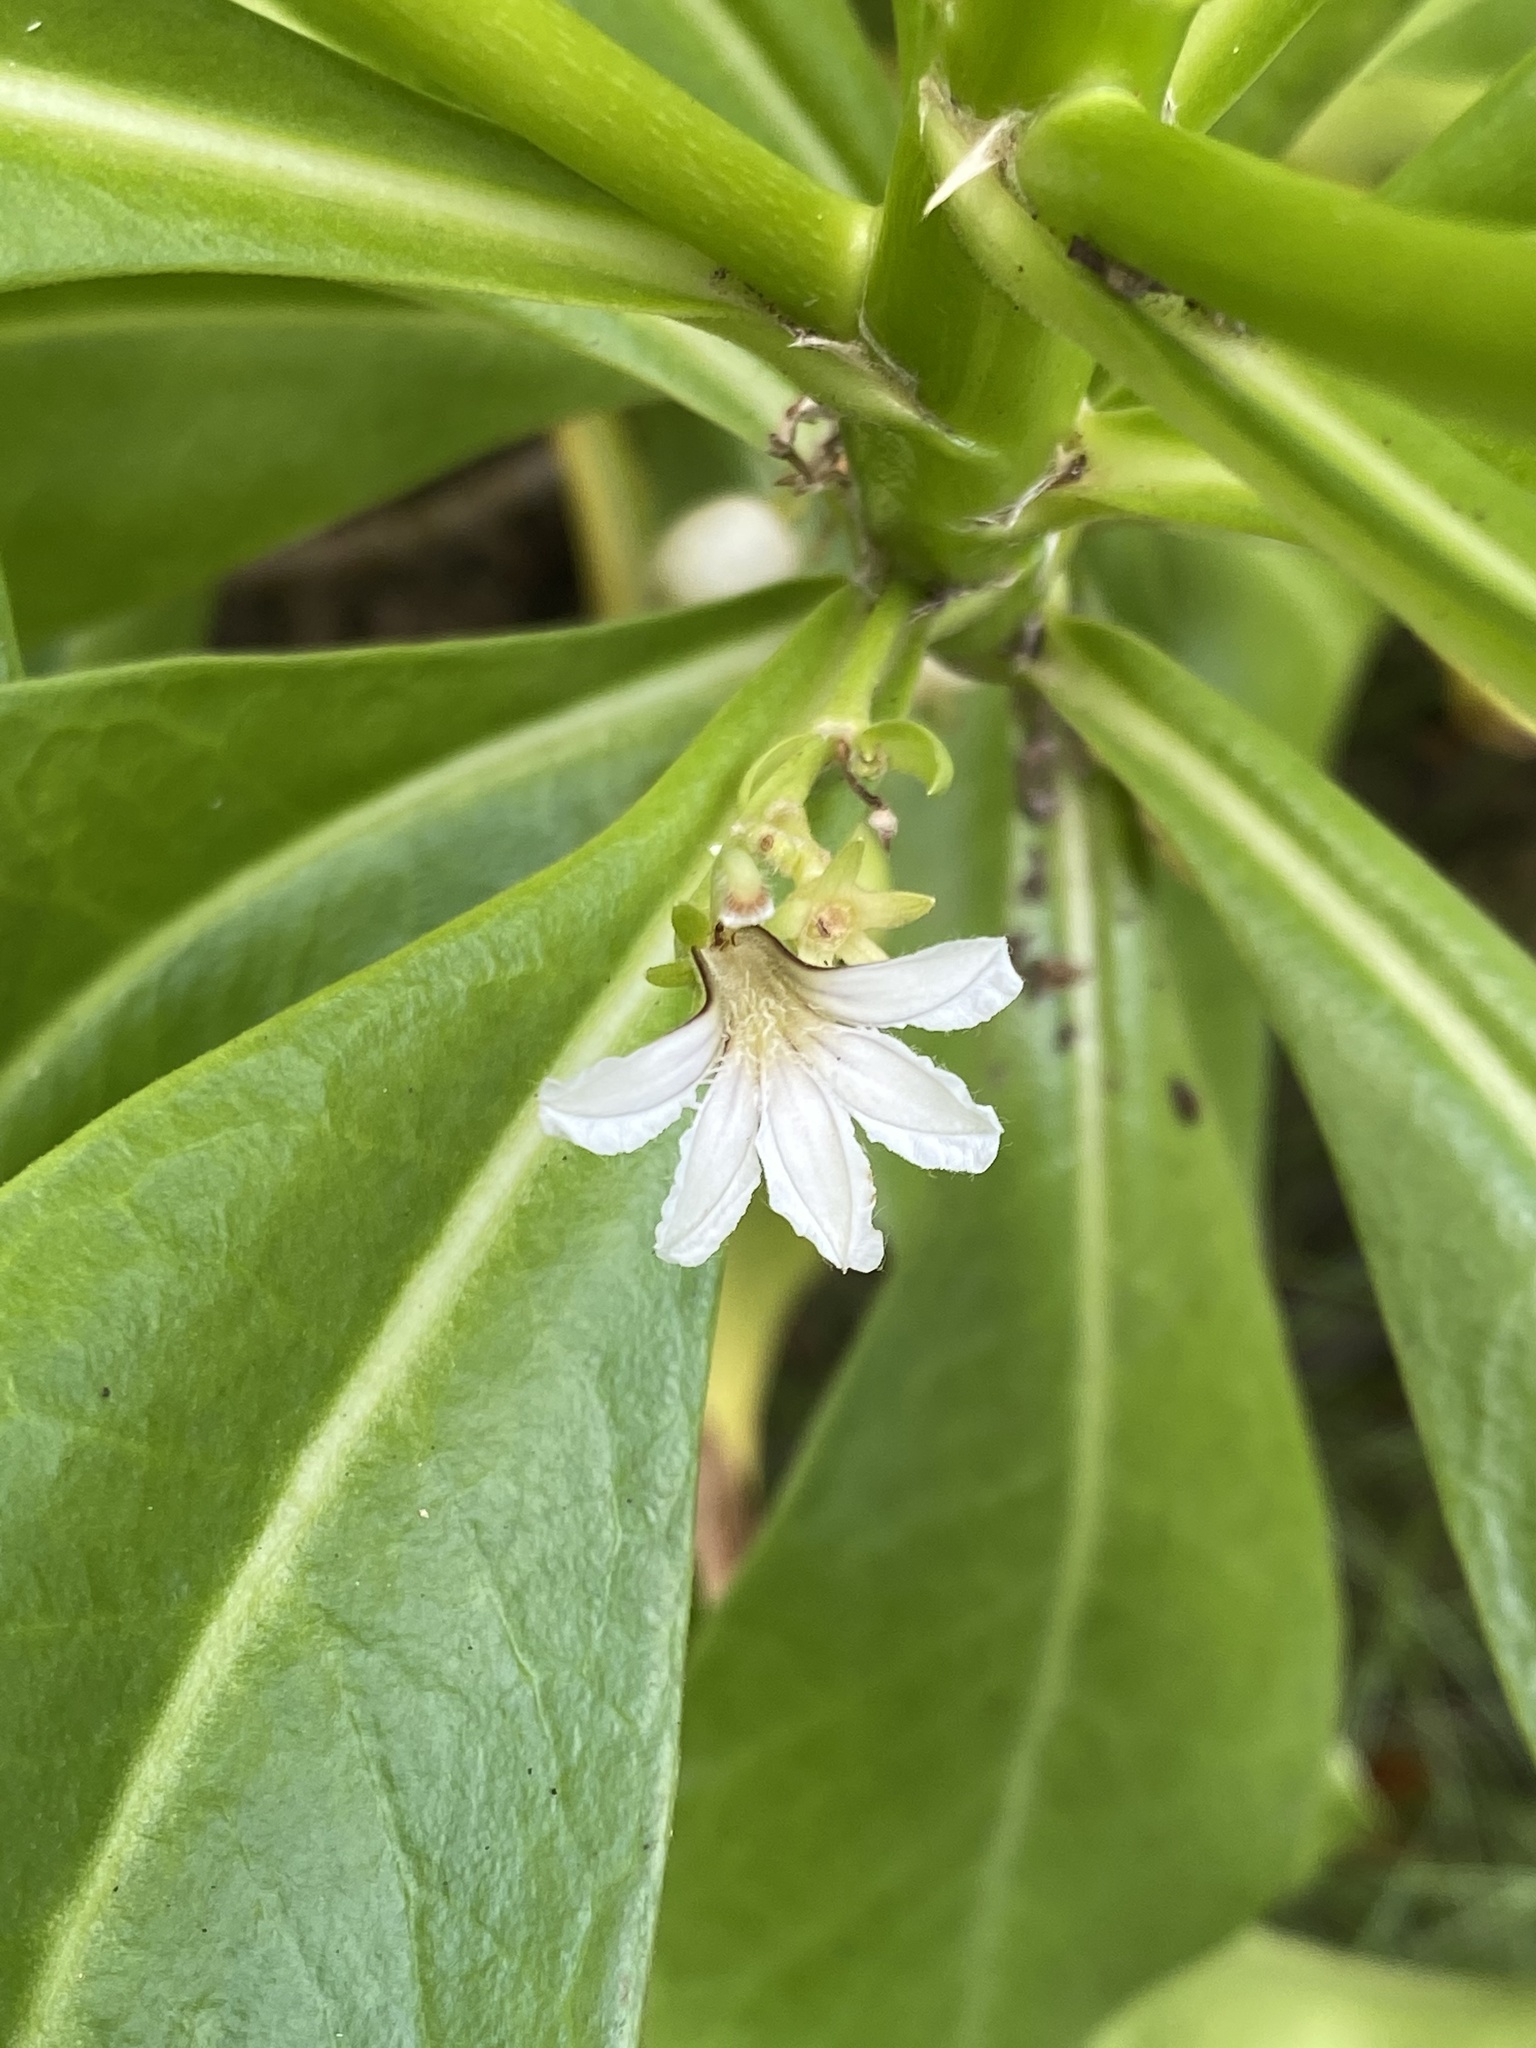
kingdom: Plantae
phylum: Tracheophyta
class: Magnoliopsida
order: Asterales
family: Goodeniaceae
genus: Scaevola
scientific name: Scaevola taccada
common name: Sea lettucetree
